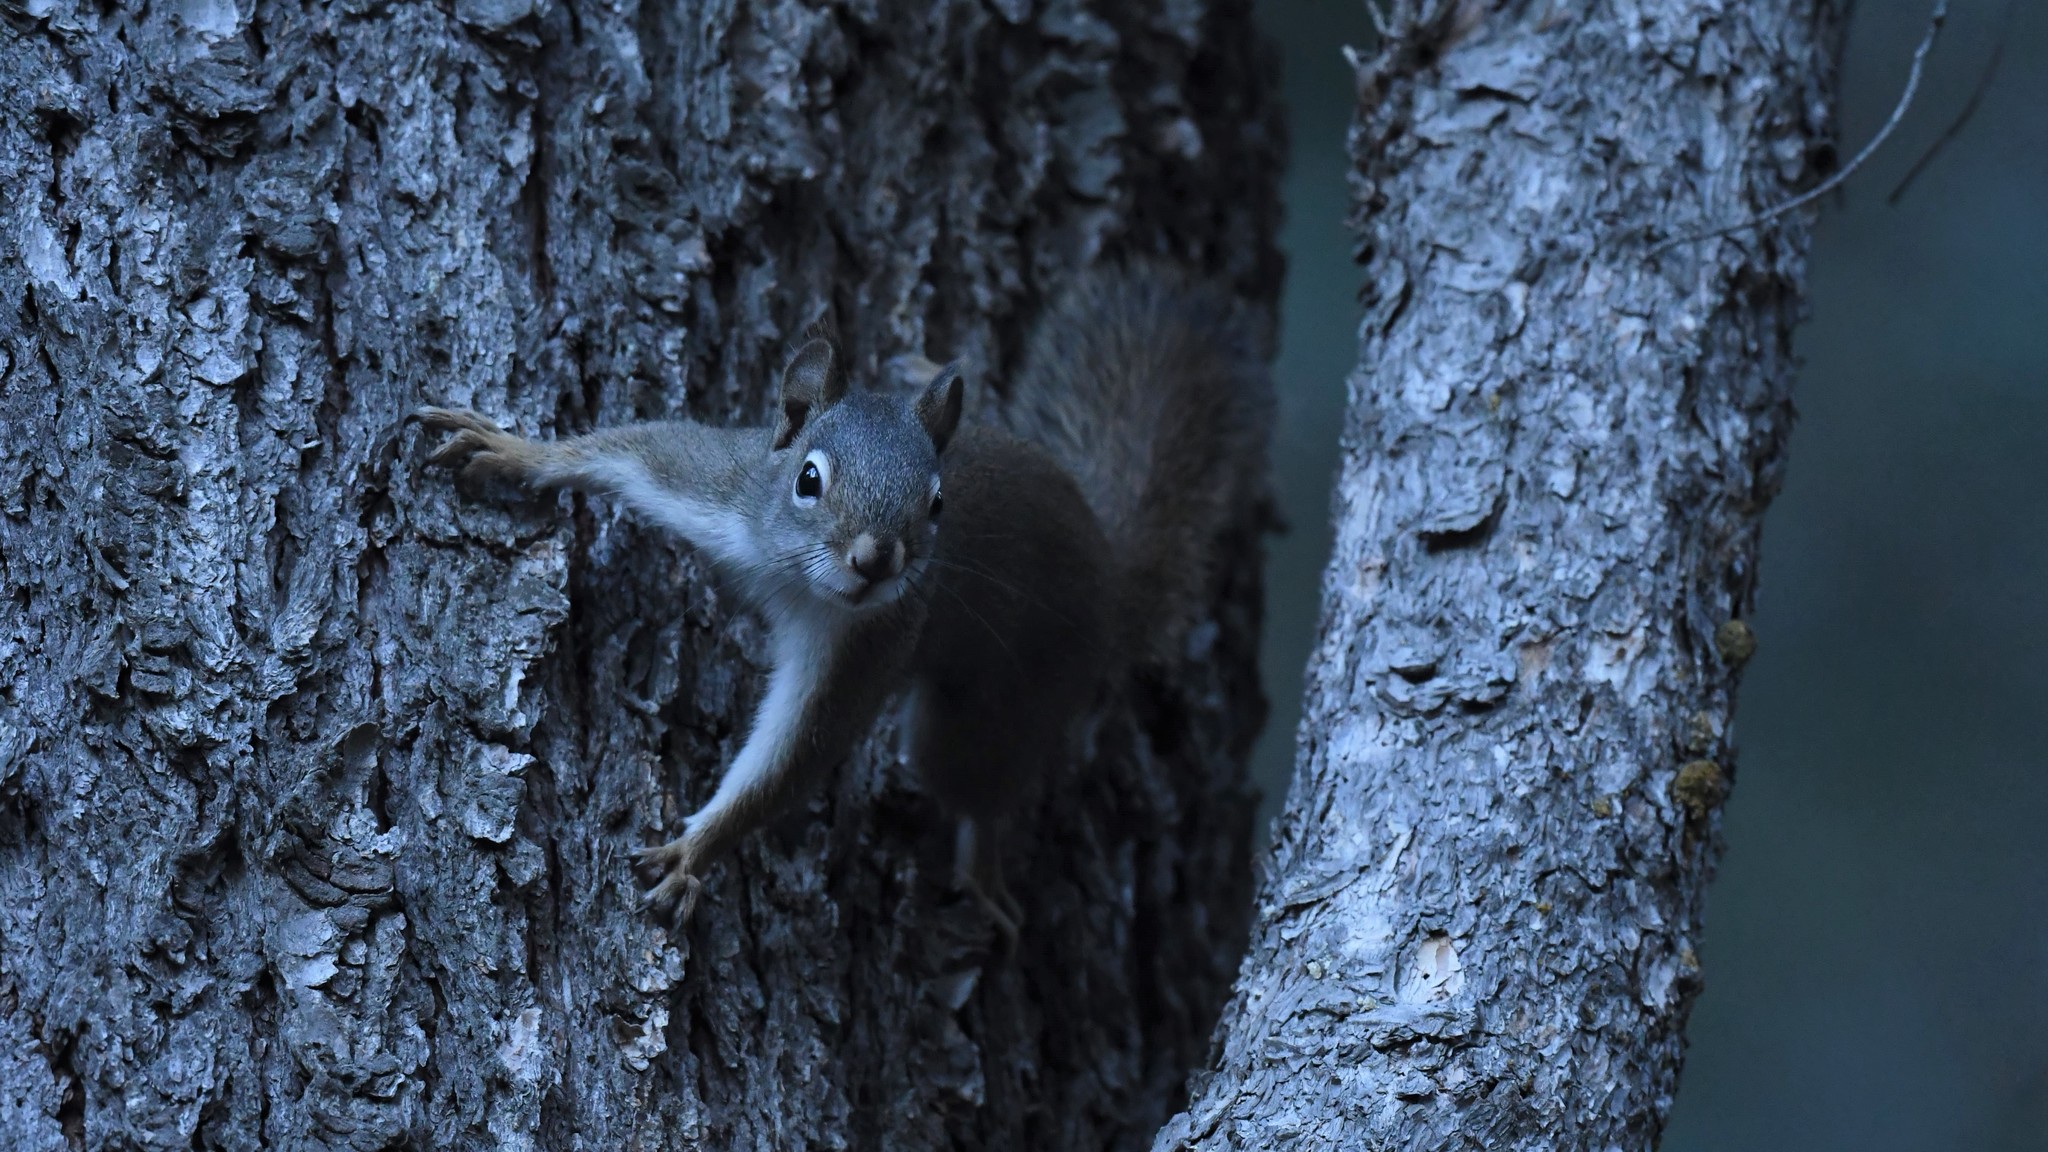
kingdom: Animalia
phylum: Chordata
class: Mammalia
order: Rodentia
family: Sciuridae
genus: Tamiasciurus
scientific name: Tamiasciurus hudsonicus
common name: Red squirrel
